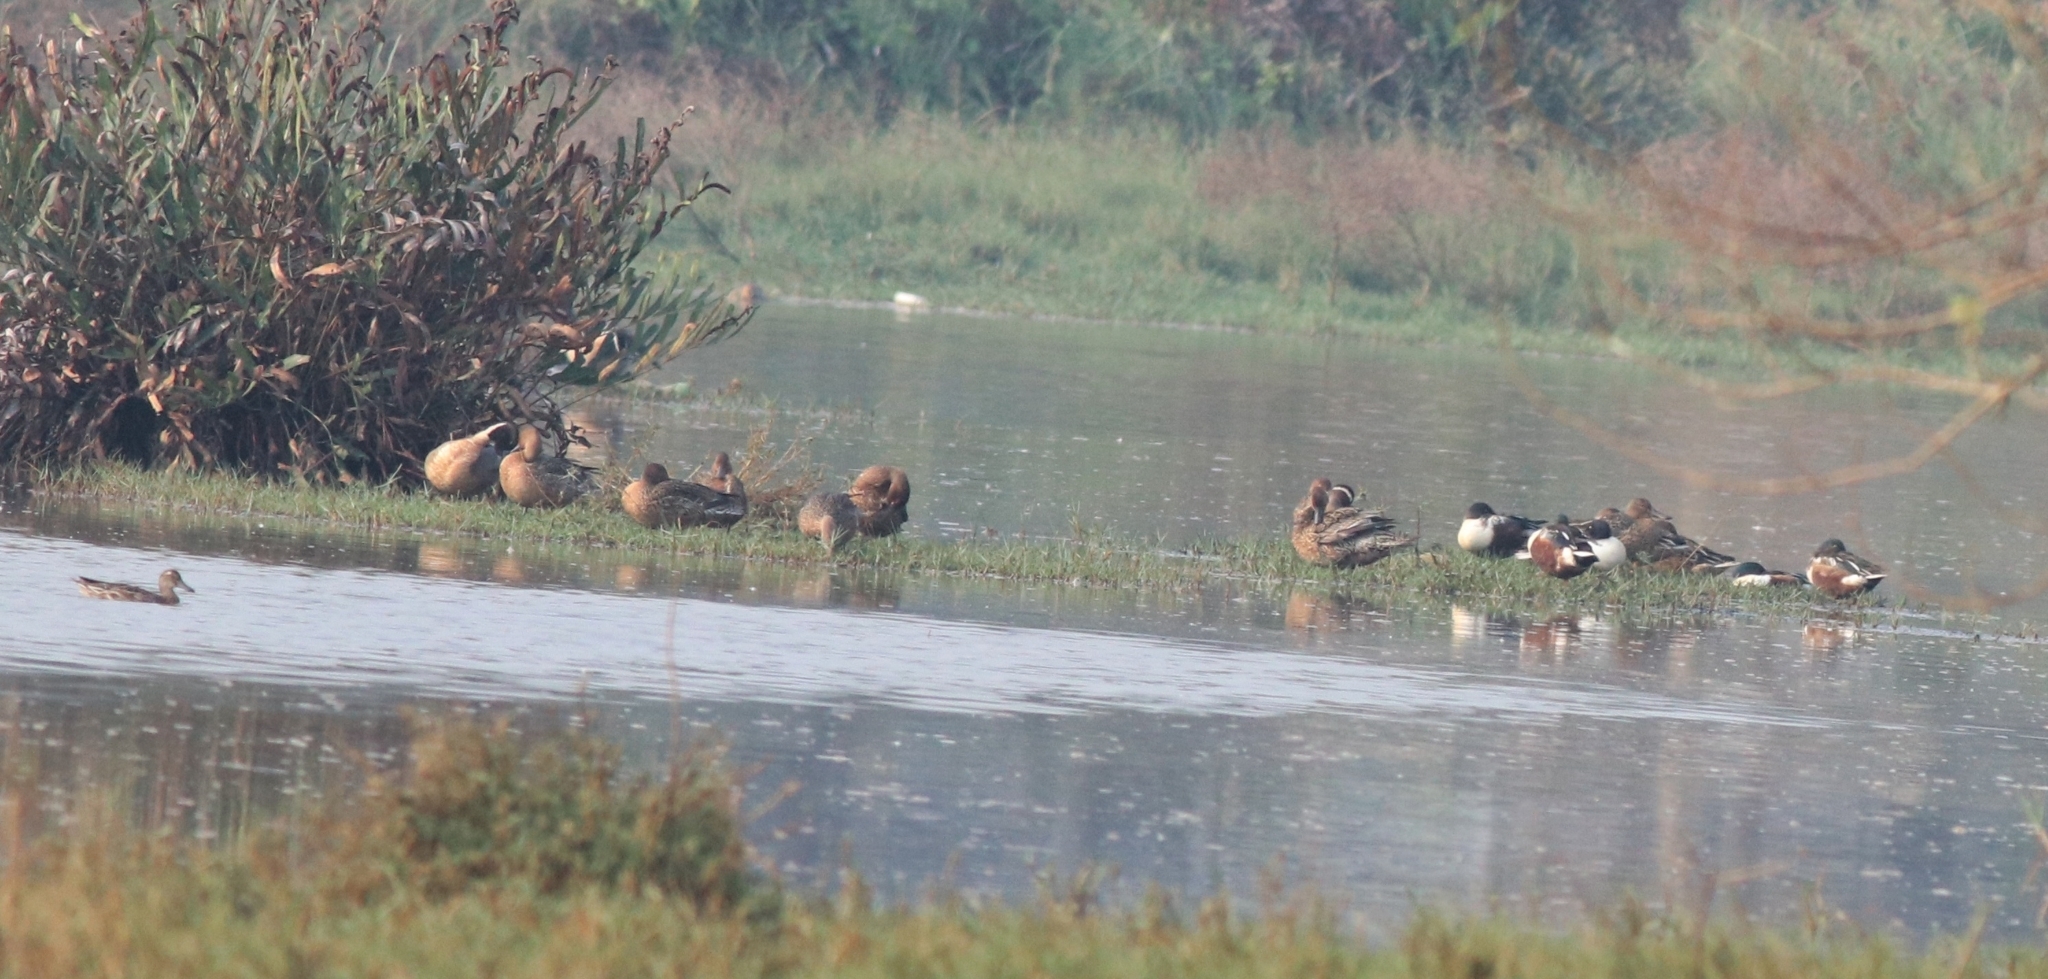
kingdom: Animalia
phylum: Chordata
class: Aves
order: Anseriformes
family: Anatidae
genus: Anas
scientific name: Anas acuta
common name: Northern pintail
